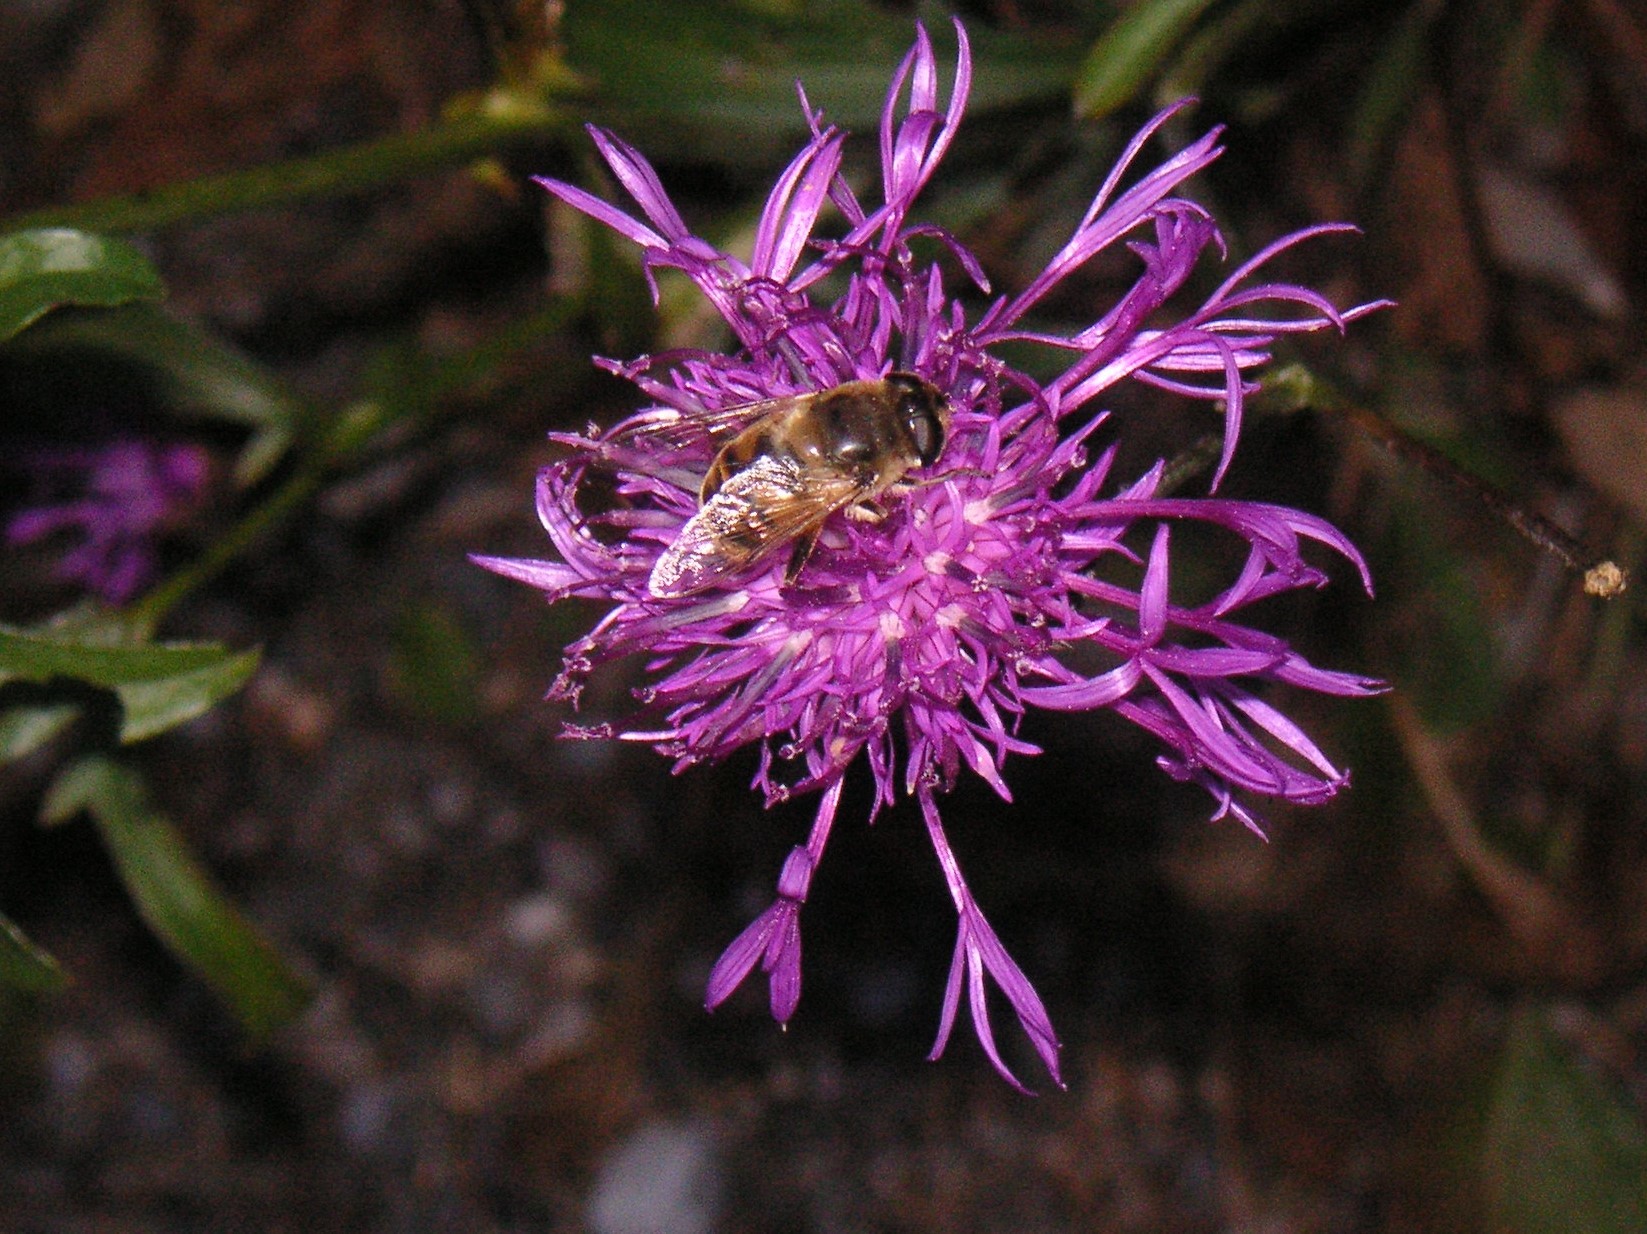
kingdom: Animalia
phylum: Arthropoda
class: Insecta
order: Diptera
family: Syrphidae
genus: Eristalis
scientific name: Eristalis tenax
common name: Drone fly
